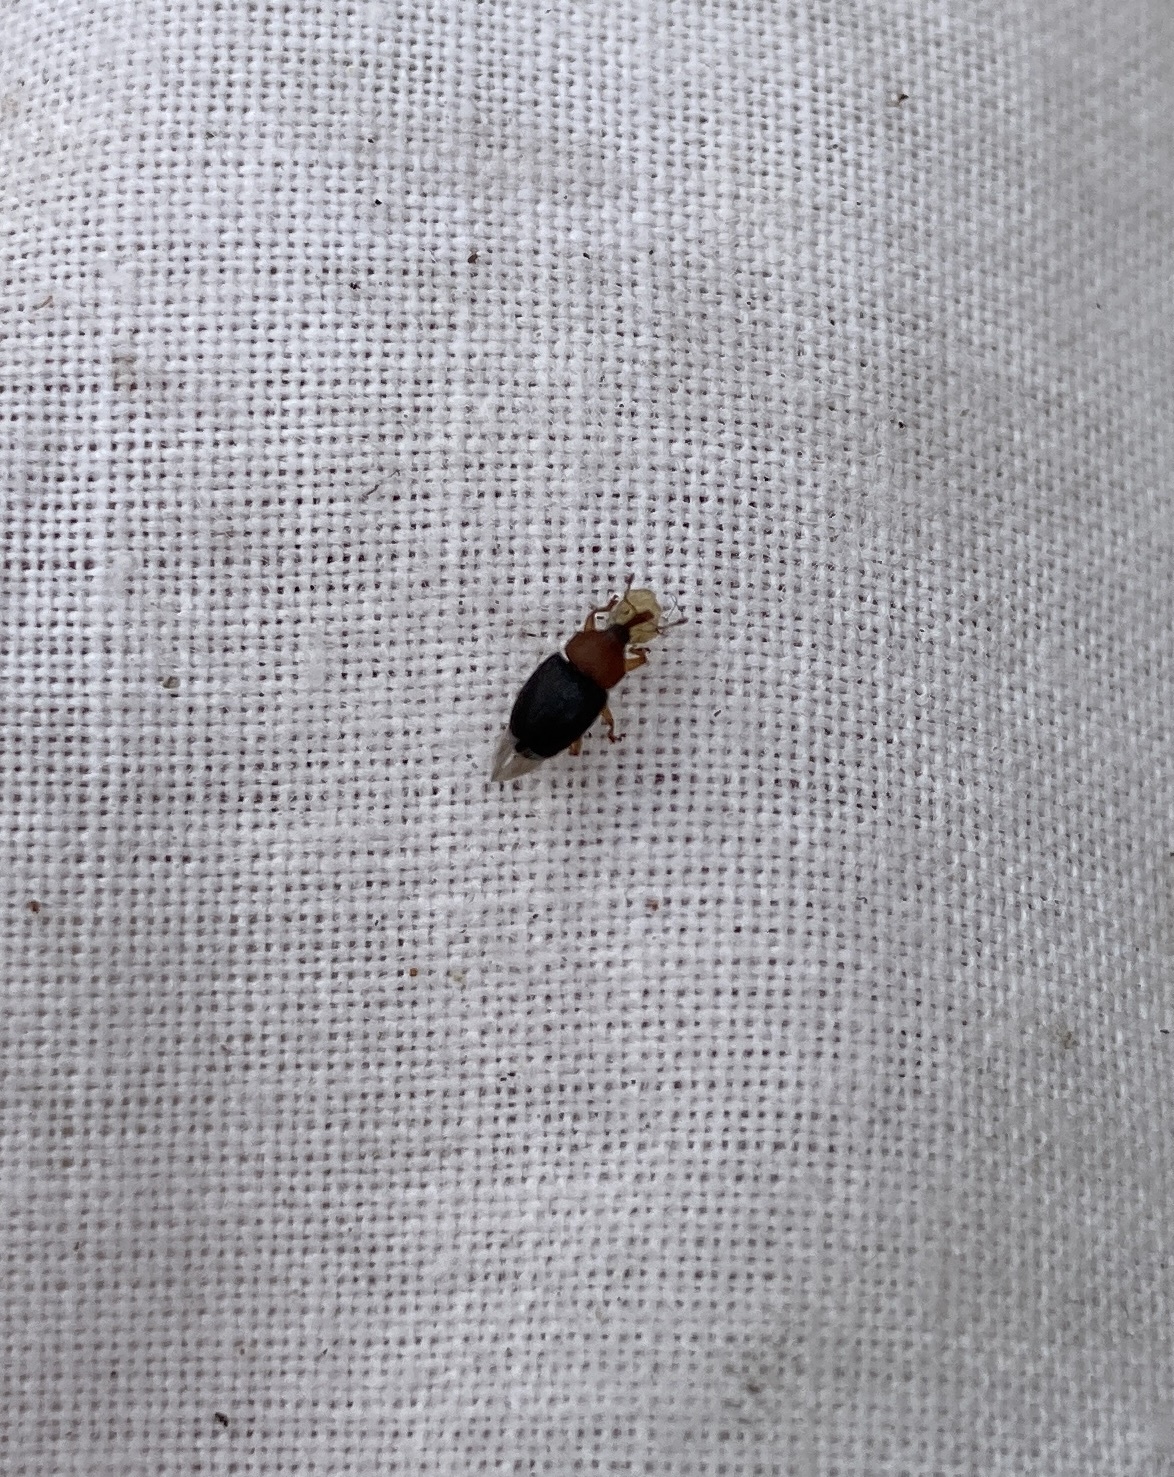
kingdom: Animalia
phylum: Arthropoda
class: Insecta
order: Coleoptera
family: Curculionidae
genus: Eudelodes
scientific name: Eudelodes bicolor
